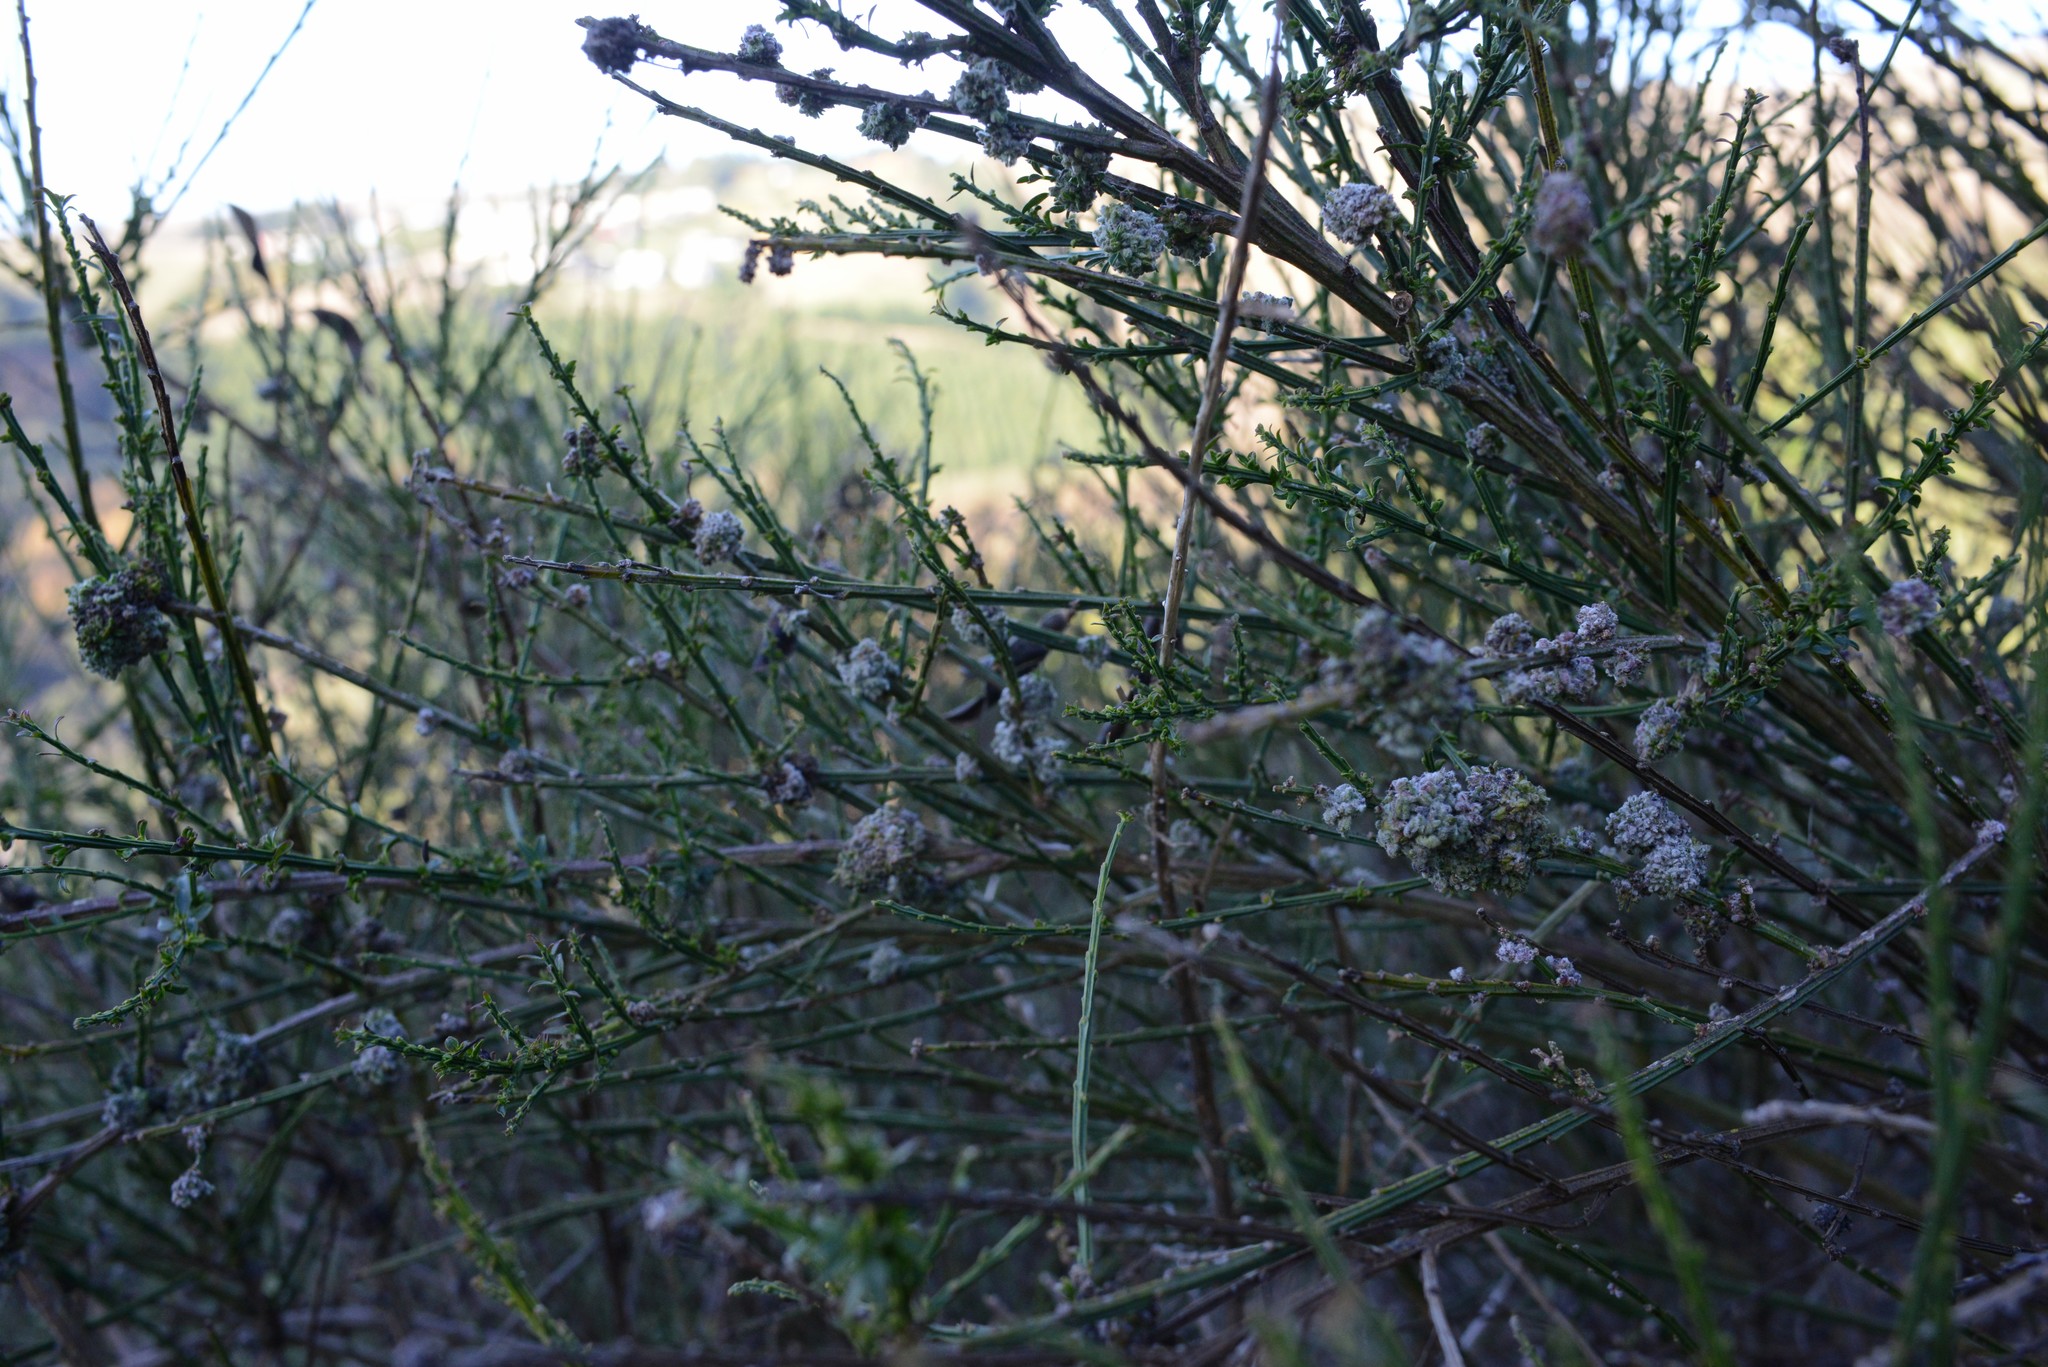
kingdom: Plantae
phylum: Tracheophyta
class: Magnoliopsida
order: Fabales
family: Fabaceae
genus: Cytisus
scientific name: Cytisus scoparius
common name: Scotch broom
